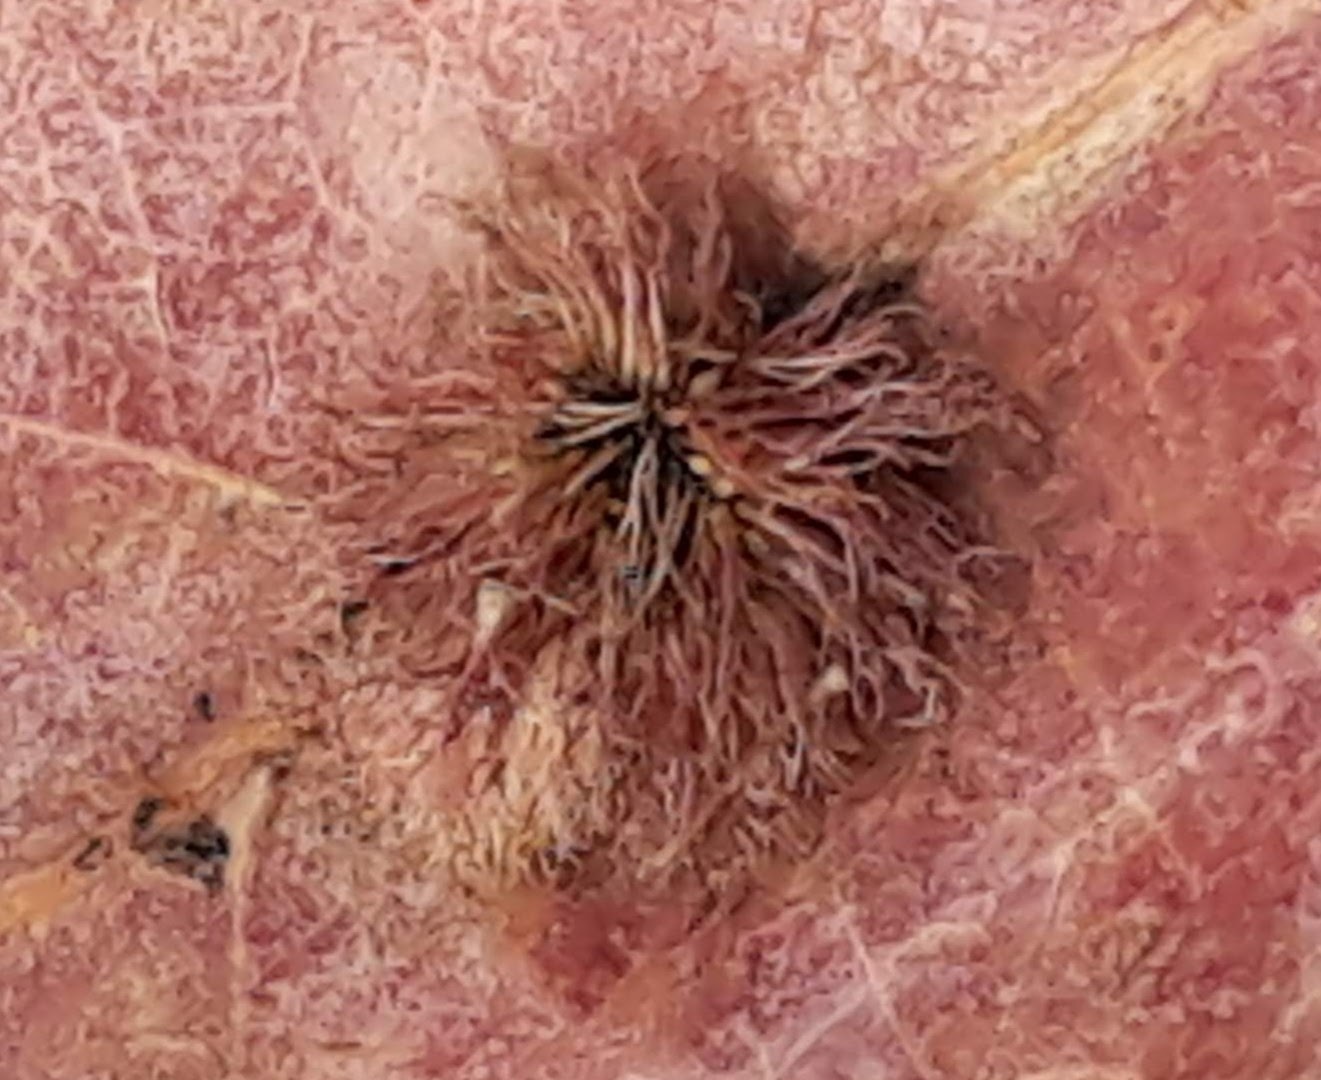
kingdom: Animalia
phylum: Arthropoda
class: Insecta
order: Hymenoptera
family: Cynipidae
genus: Acraspis
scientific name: Acraspis erinacei
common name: Hedgehog gall wasp
